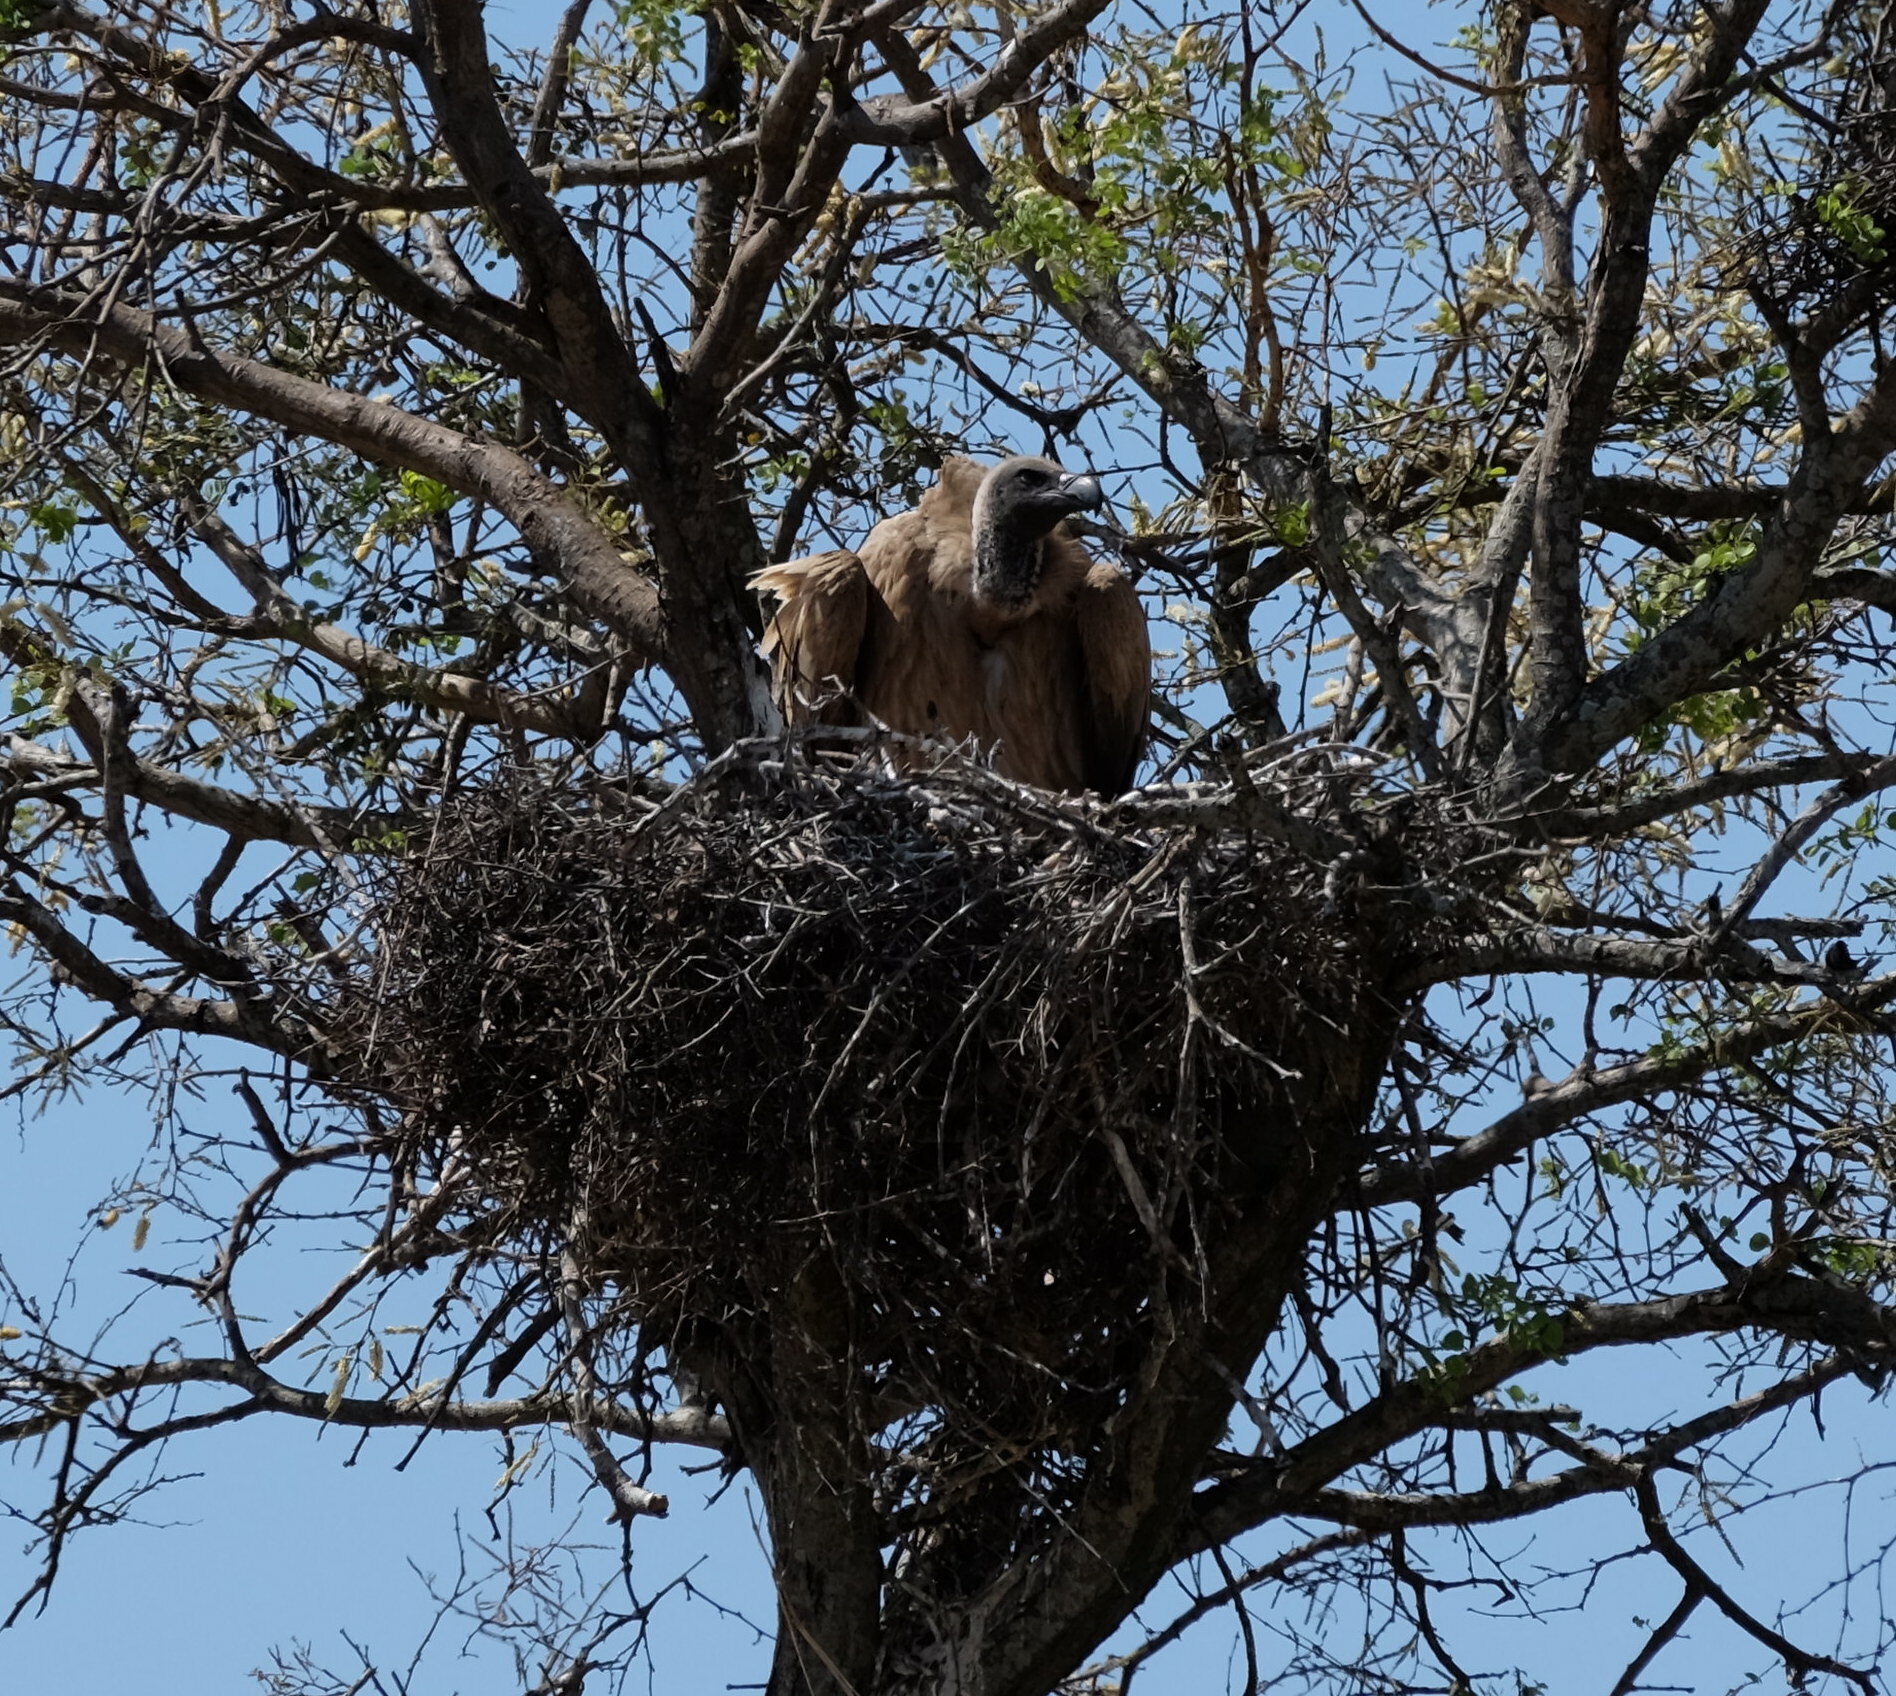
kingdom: Animalia
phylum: Chordata
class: Aves
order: Accipitriformes
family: Accipitridae
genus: Gyps
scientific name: Gyps africanus
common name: White-backed vulture
